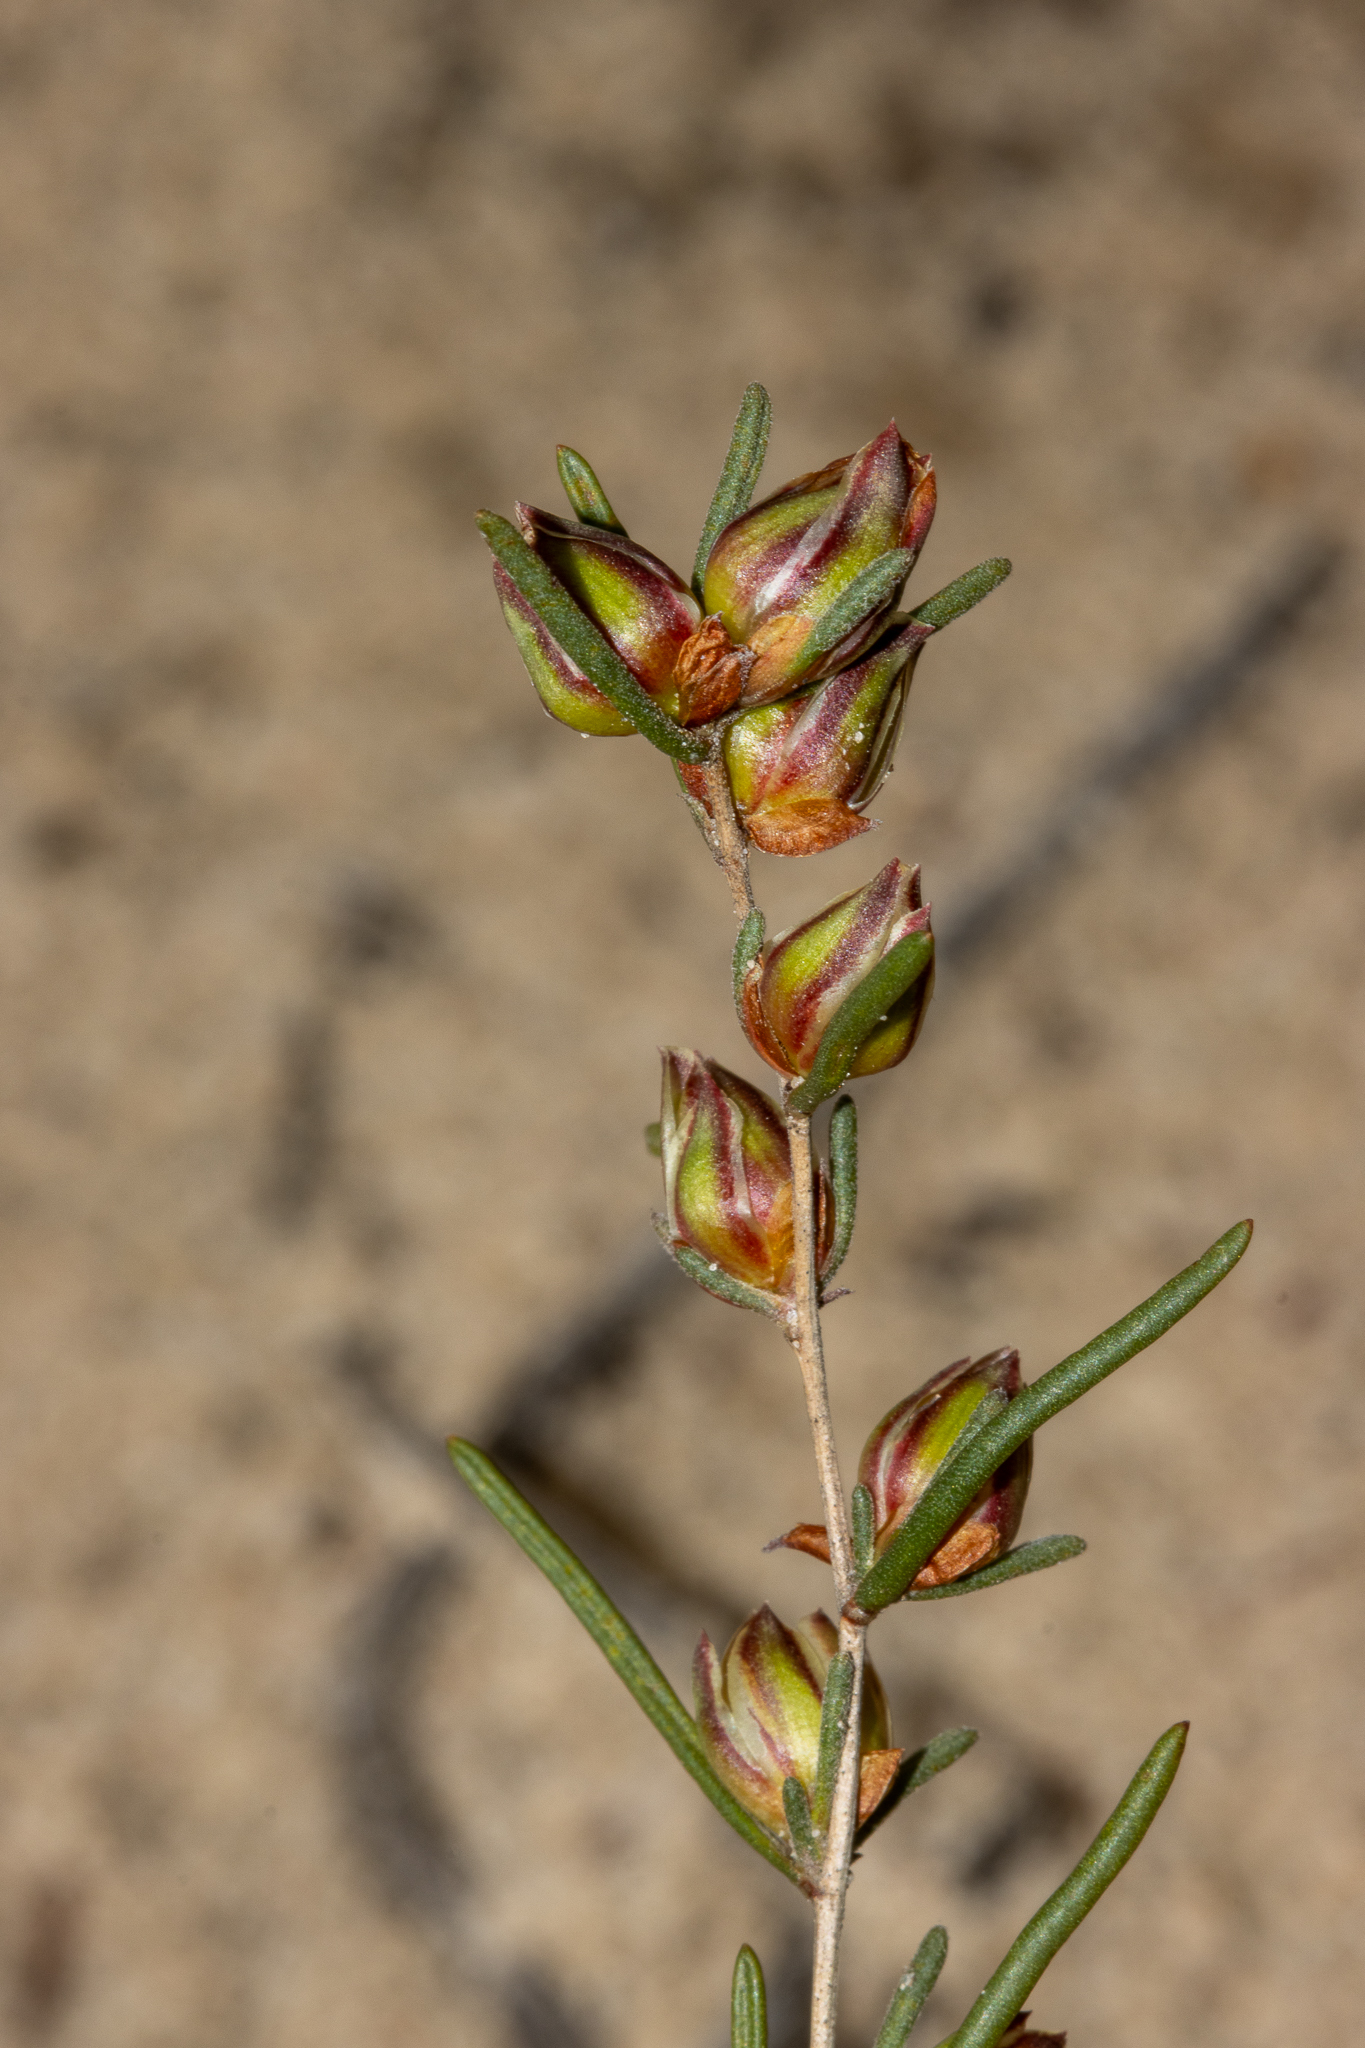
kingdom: Plantae
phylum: Tracheophyta
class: Magnoliopsida
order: Dilleniales
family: Dilleniaceae
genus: Hibbertia
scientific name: Hibbertia virgata
